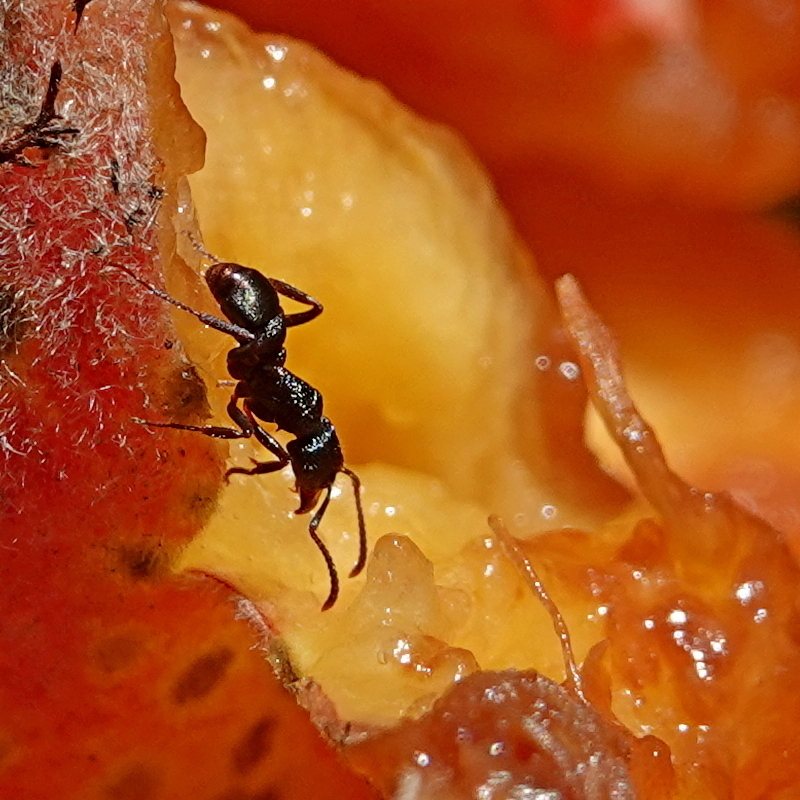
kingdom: Animalia
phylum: Arthropoda
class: Insecta
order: Hymenoptera
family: Formicidae
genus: Rhytidoponera
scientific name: Rhytidoponera metallica
